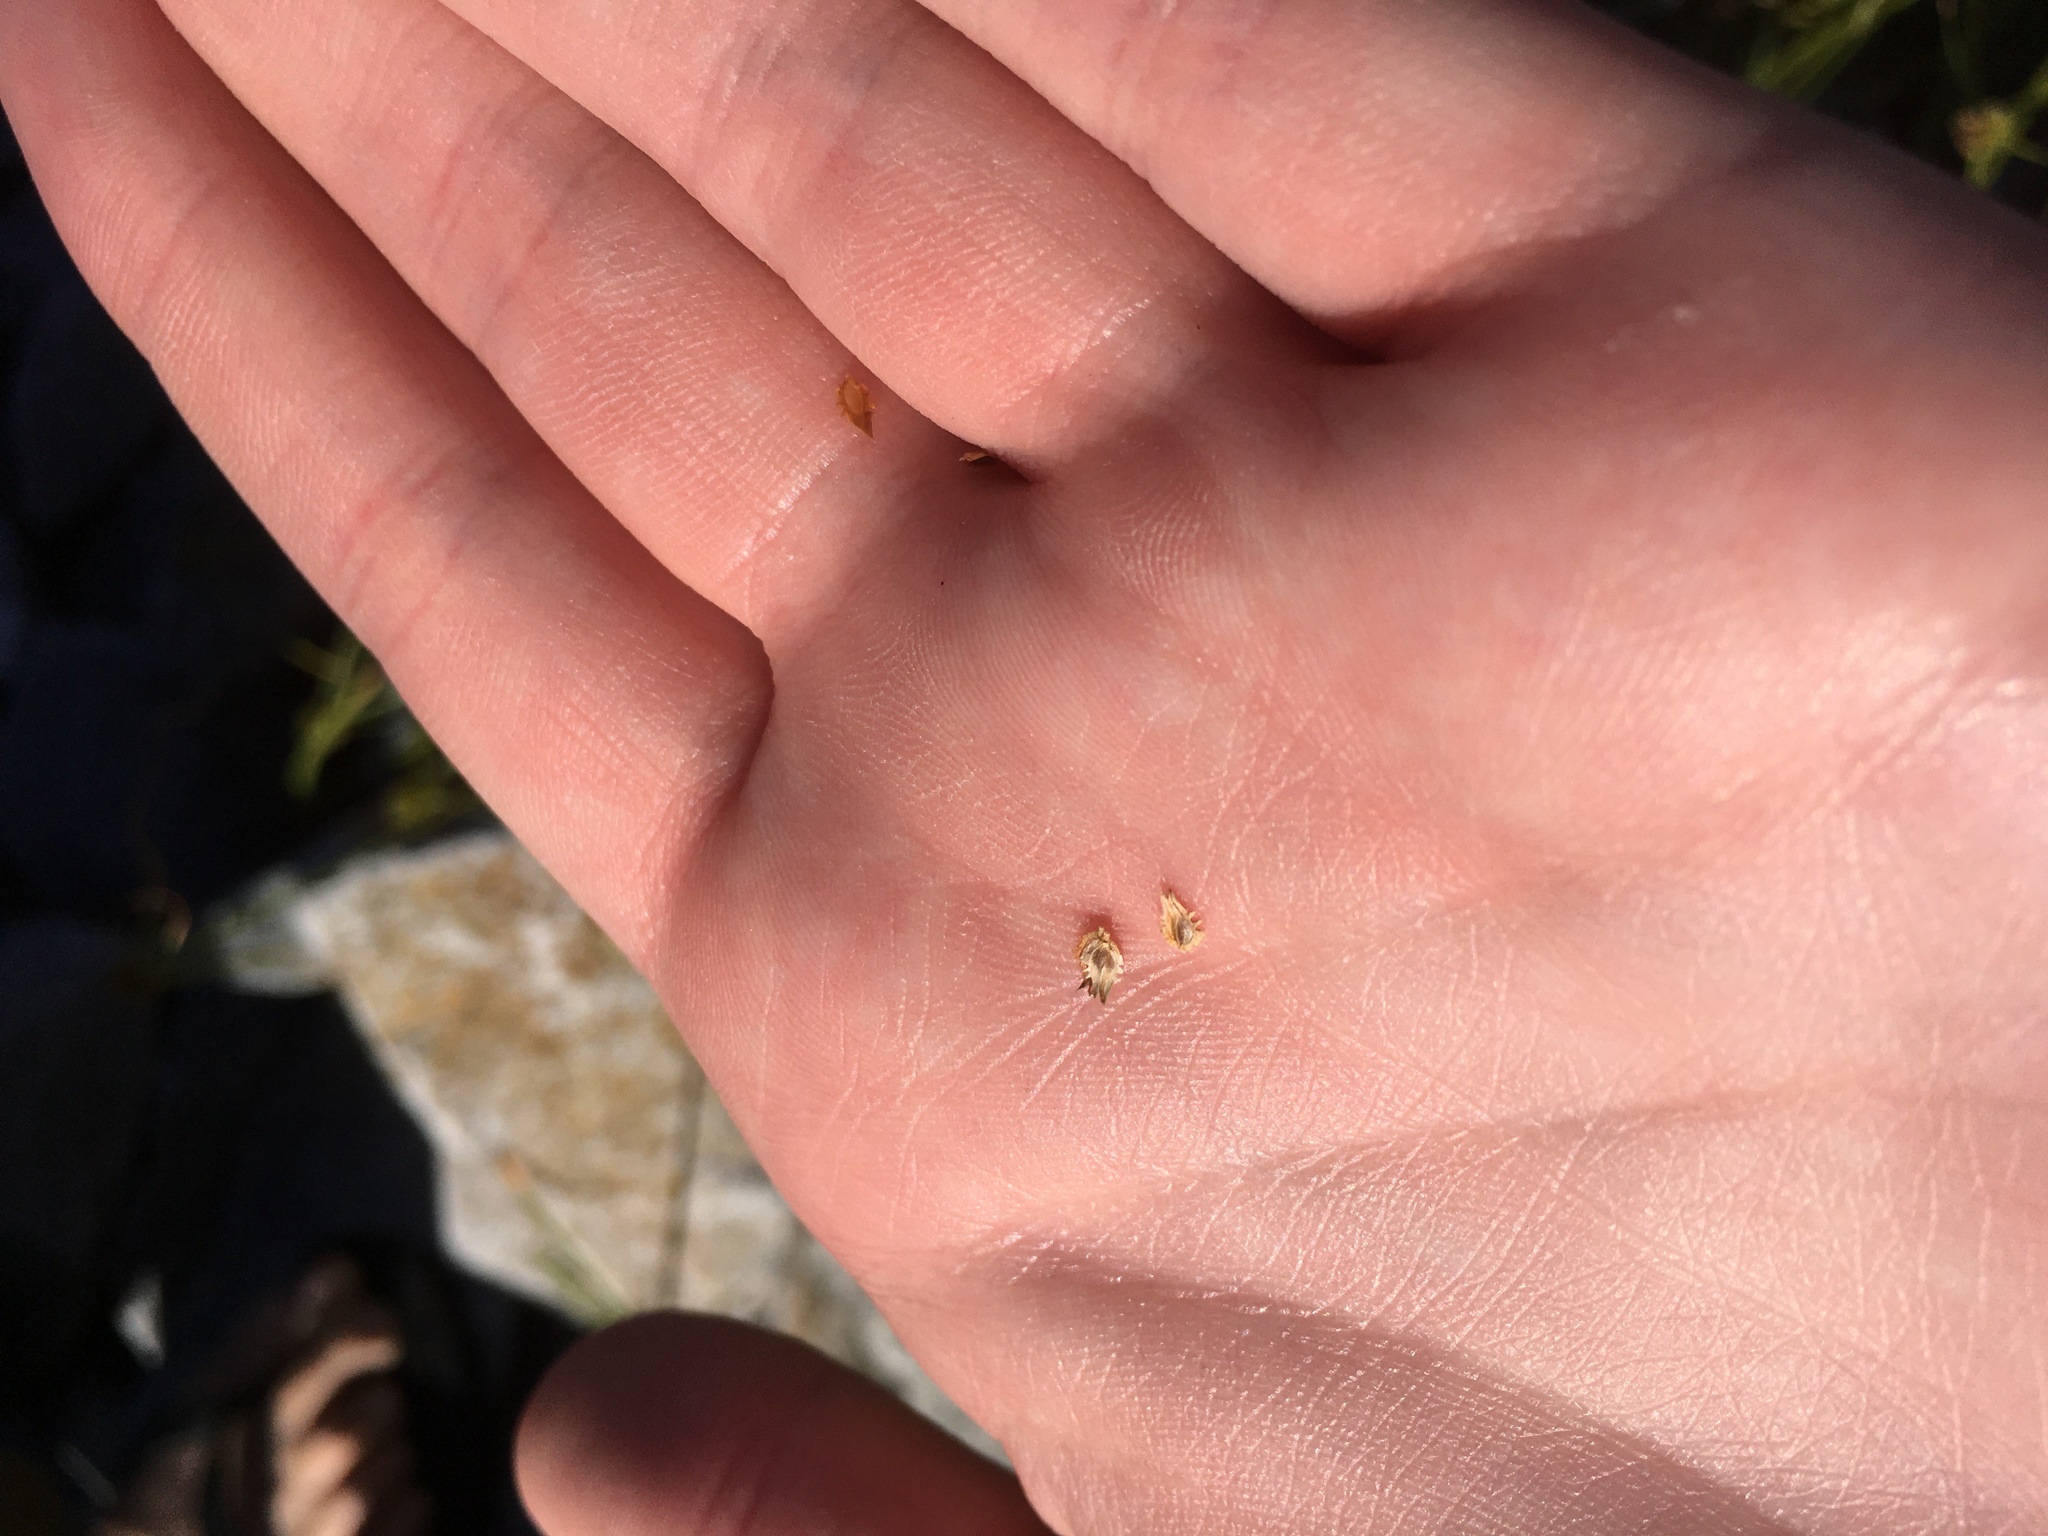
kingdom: Plantae
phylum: Tracheophyta
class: Liliopsida
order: Poales
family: Cyperaceae
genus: Cyperus
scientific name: Cyperus metzii
